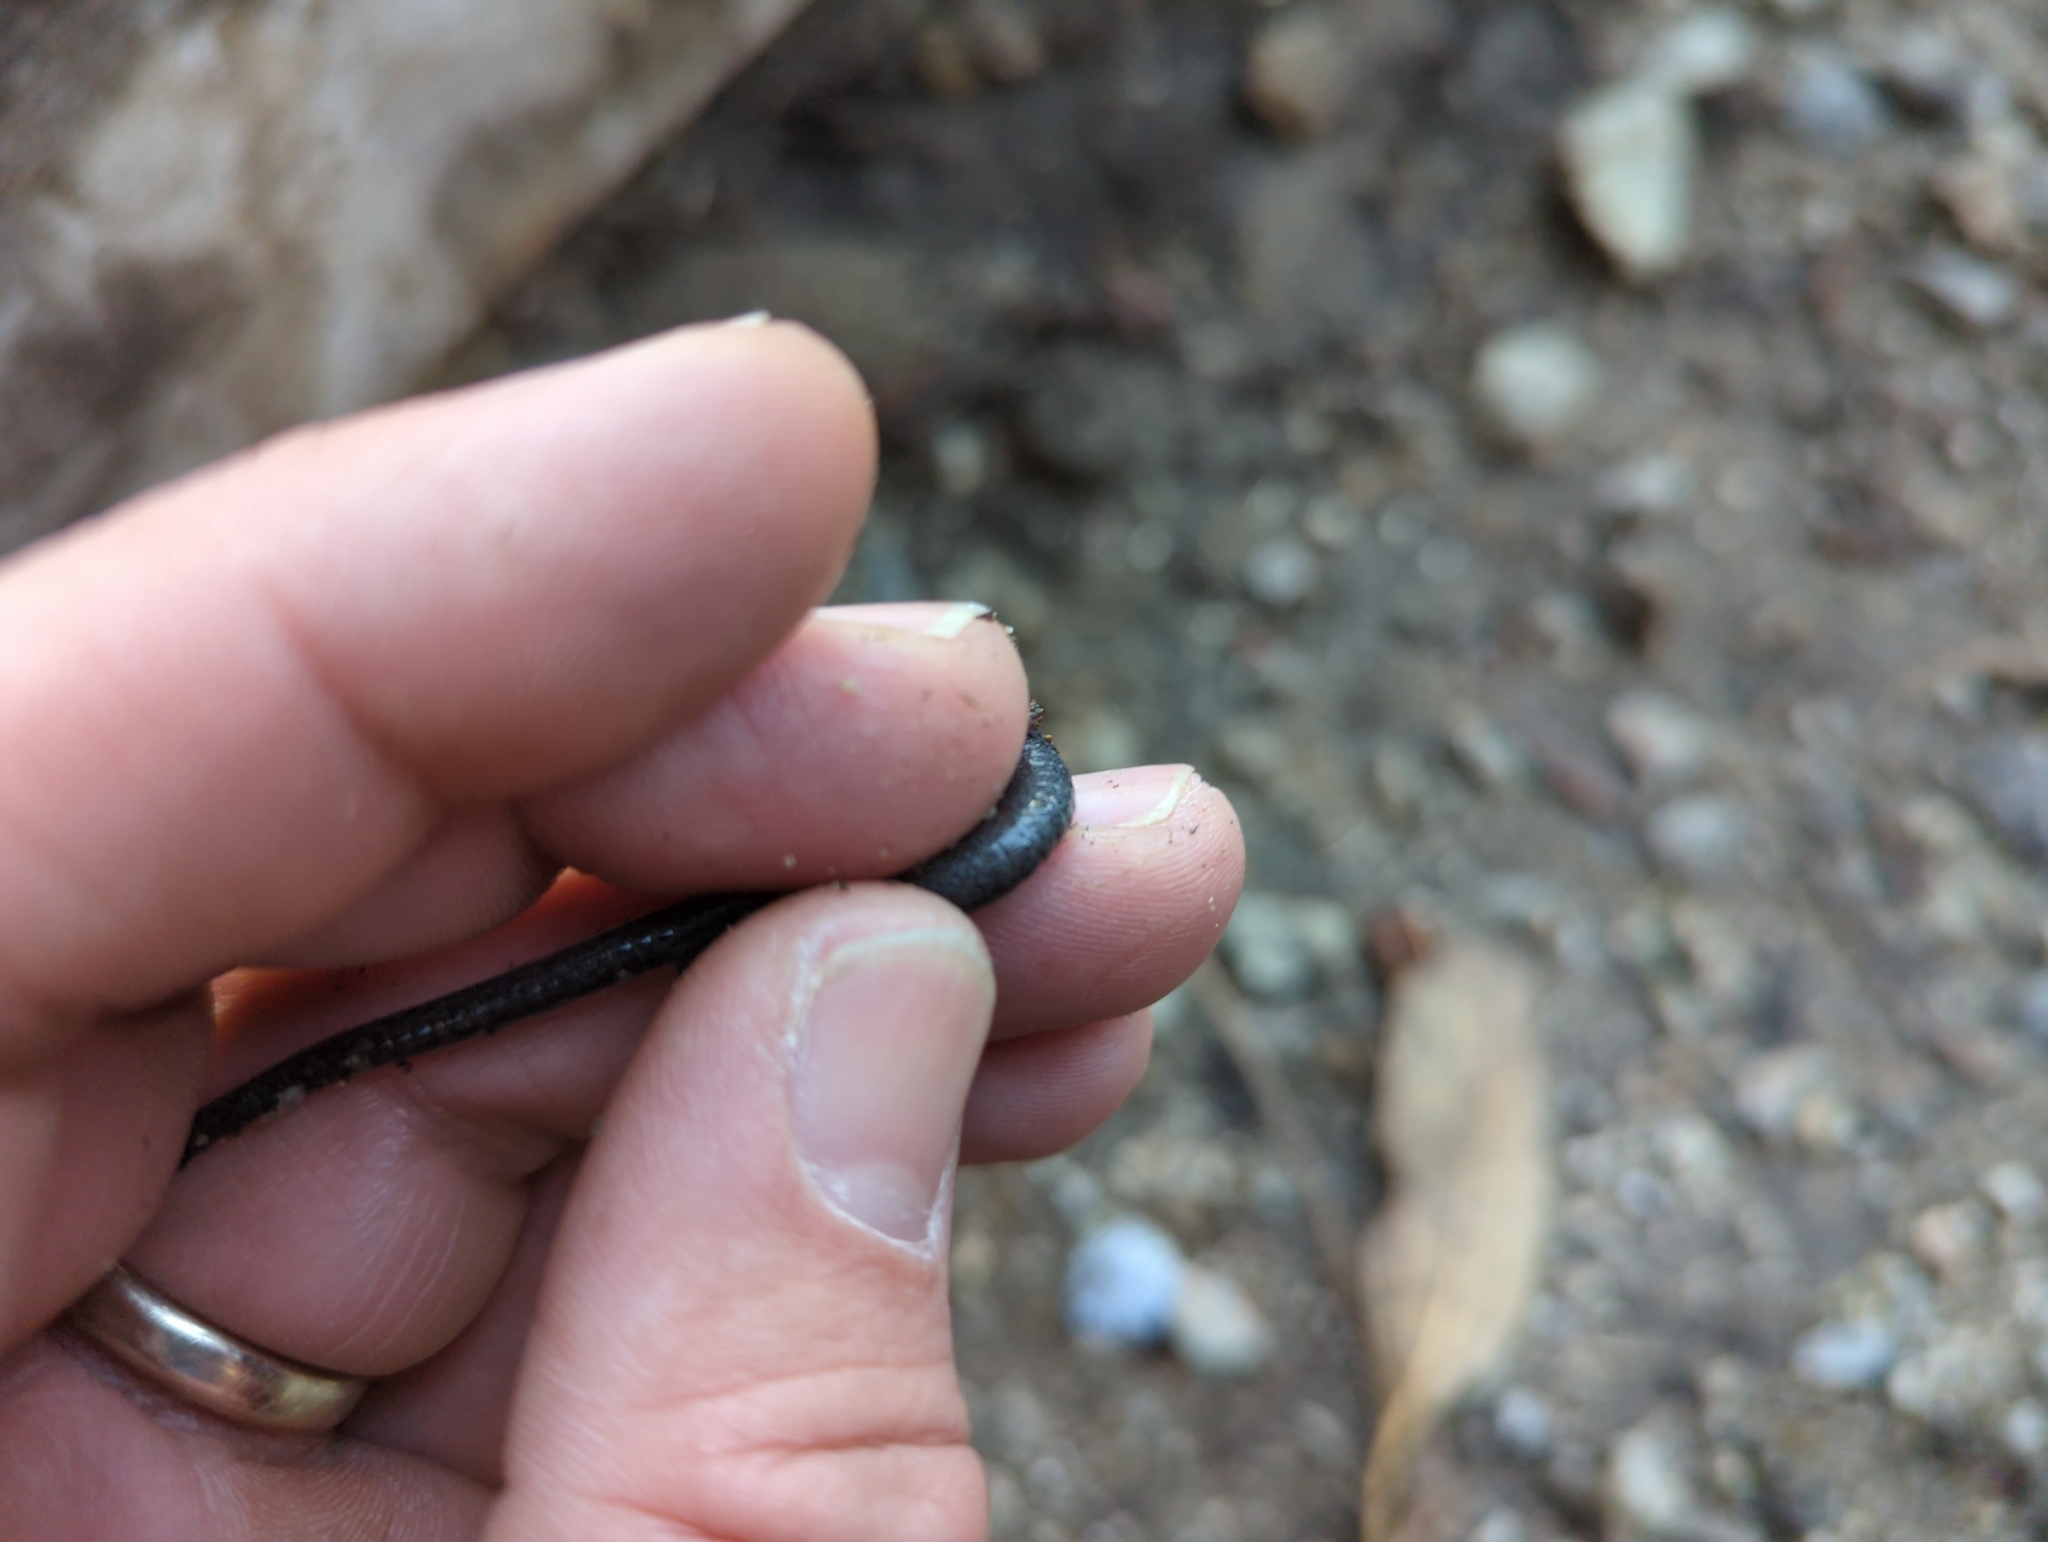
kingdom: Animalia
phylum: Chordata
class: Amphibia
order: Caudata
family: Plethodontidae
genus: Batrachoseps
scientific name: Batrachoseps nigriventris
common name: Black-bellied slender salamander
